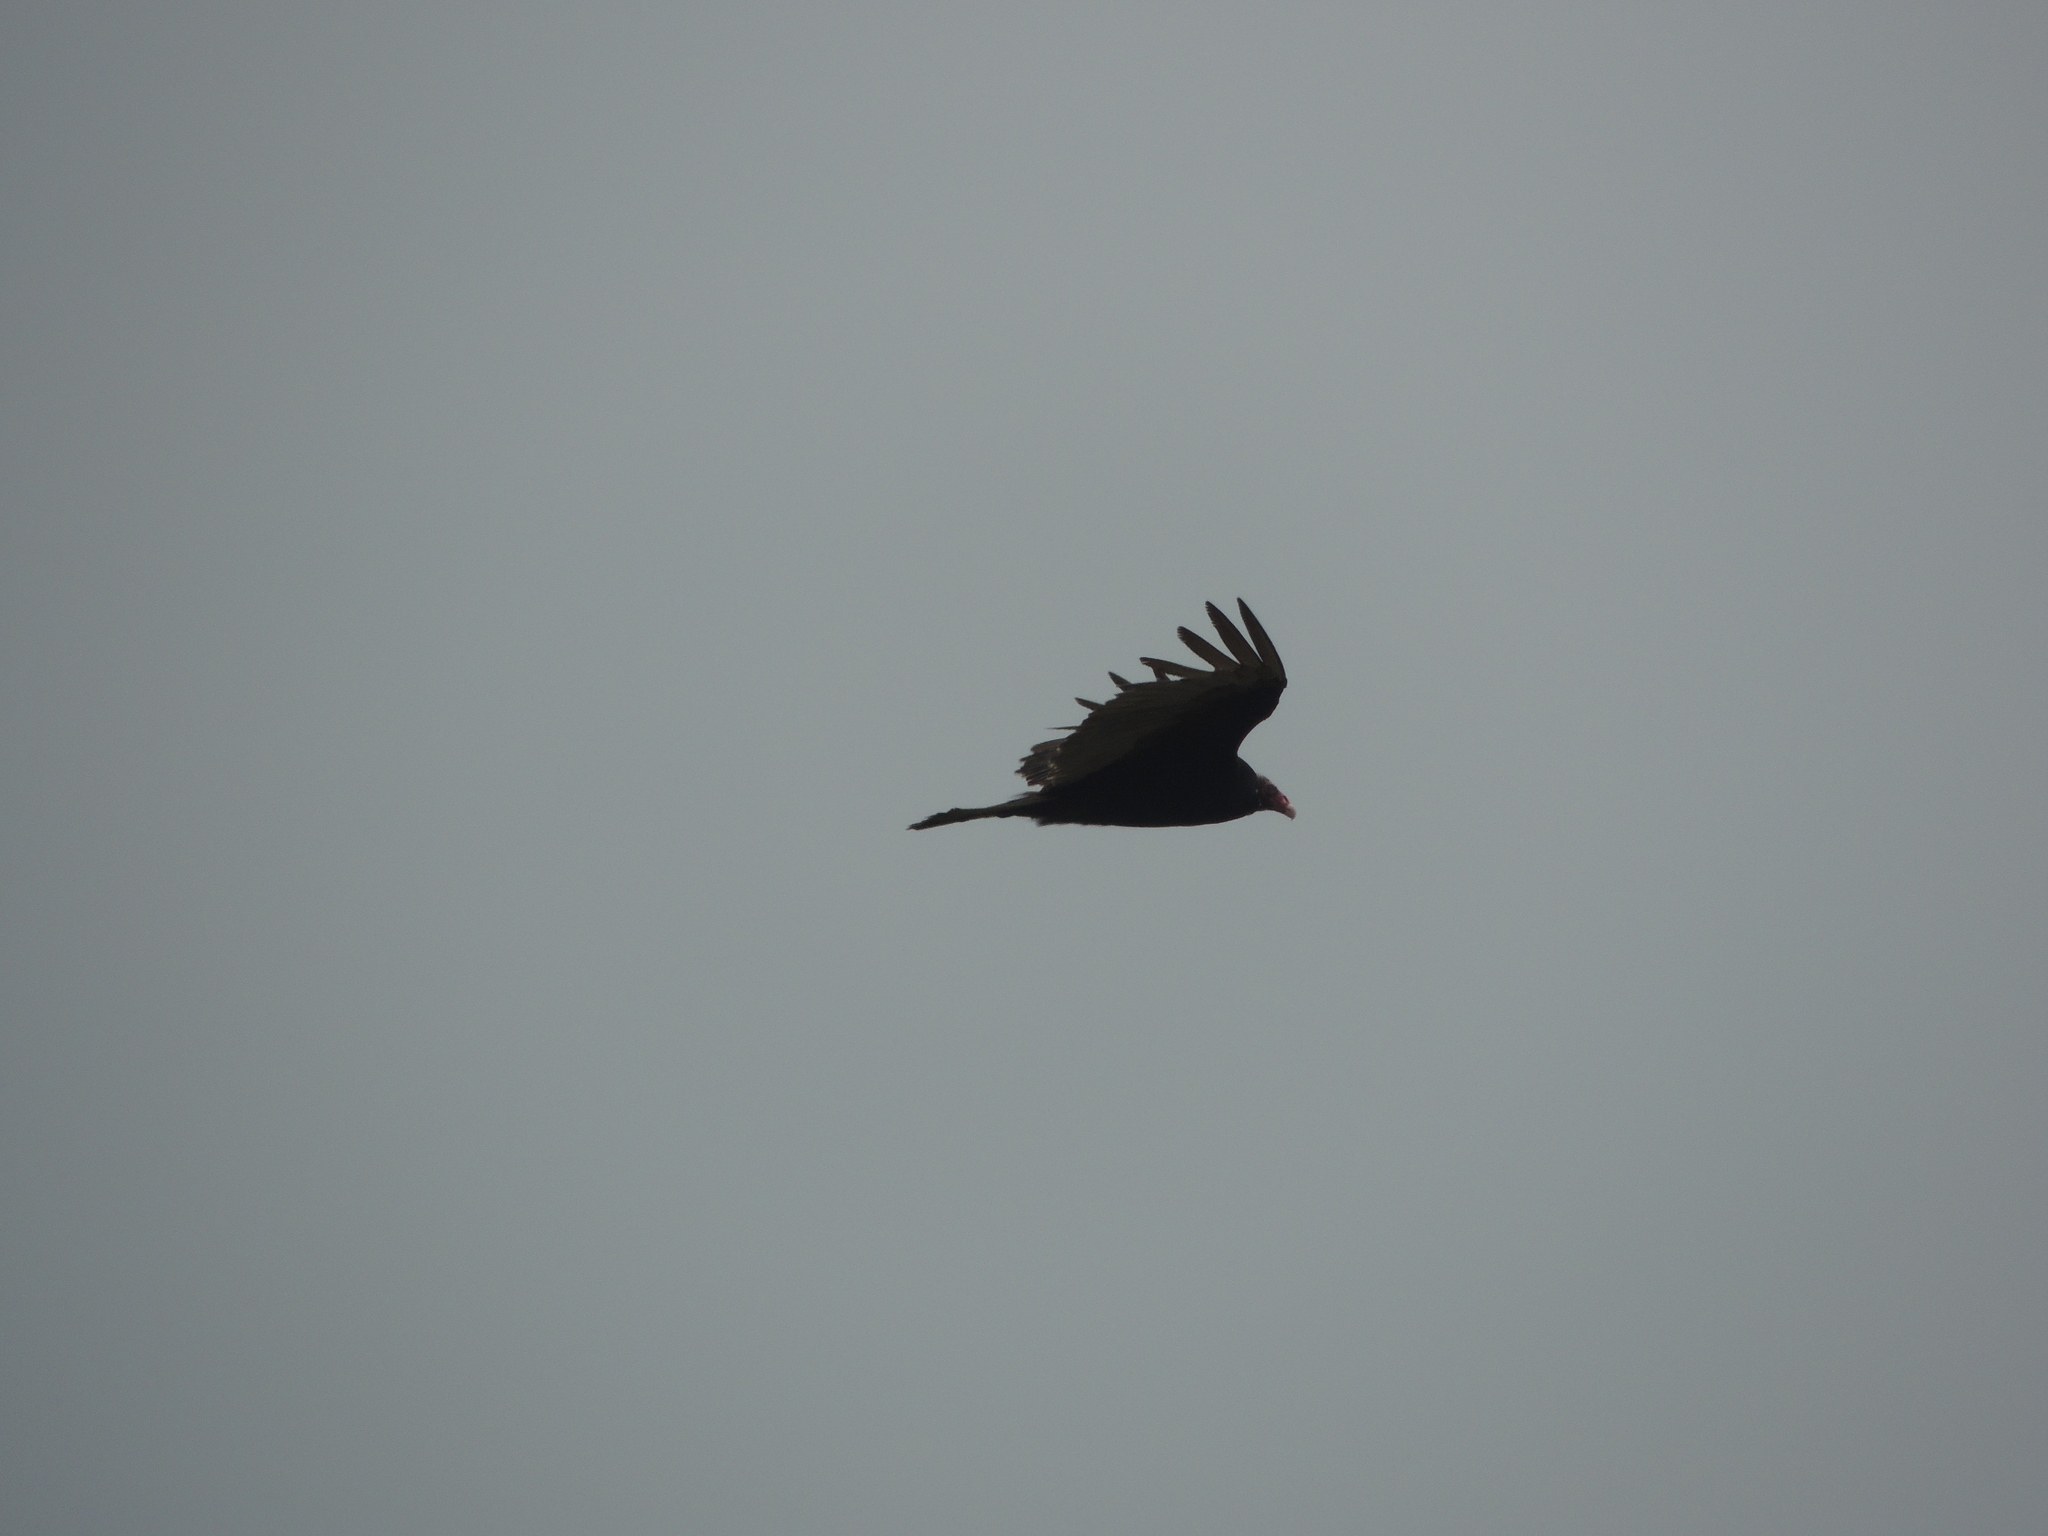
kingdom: Animalia
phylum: Chordata
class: Aves
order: Accipitriformes
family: Cathartidae
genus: Cathartes
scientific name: Cathartes aura
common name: Turkey vulture
